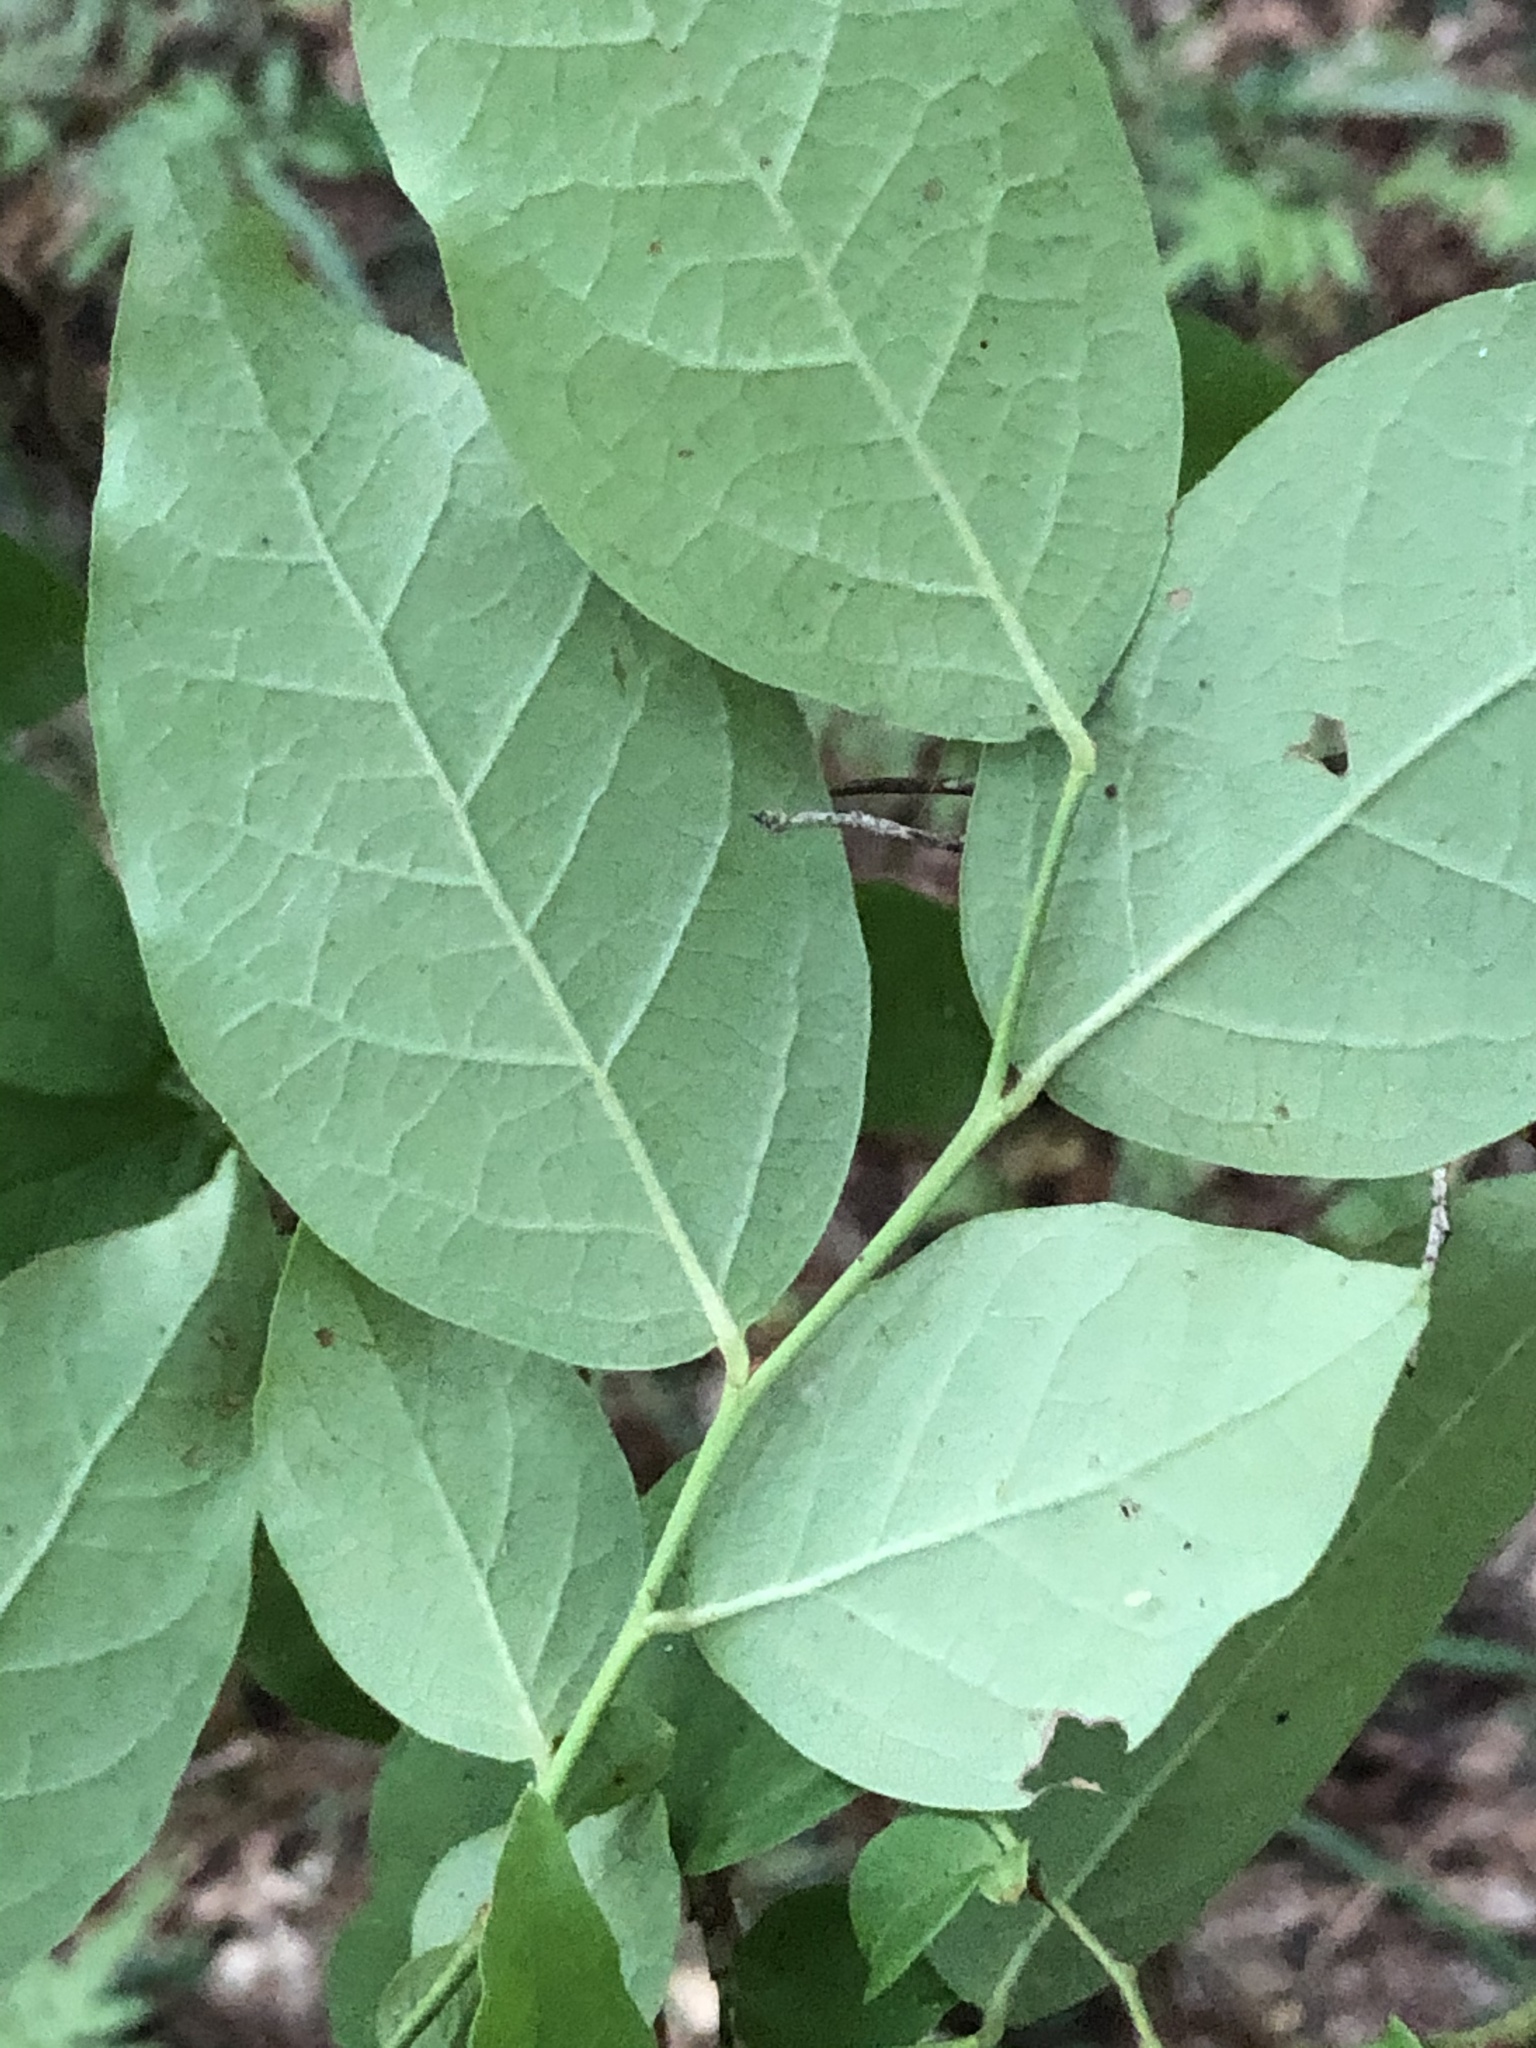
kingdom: Plantae
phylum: Tracheophyta
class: Magnoliopsida
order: Ericales
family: Ericaceae
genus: Vaccinium
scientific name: Vaccinium corymbosum
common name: Blueberry
